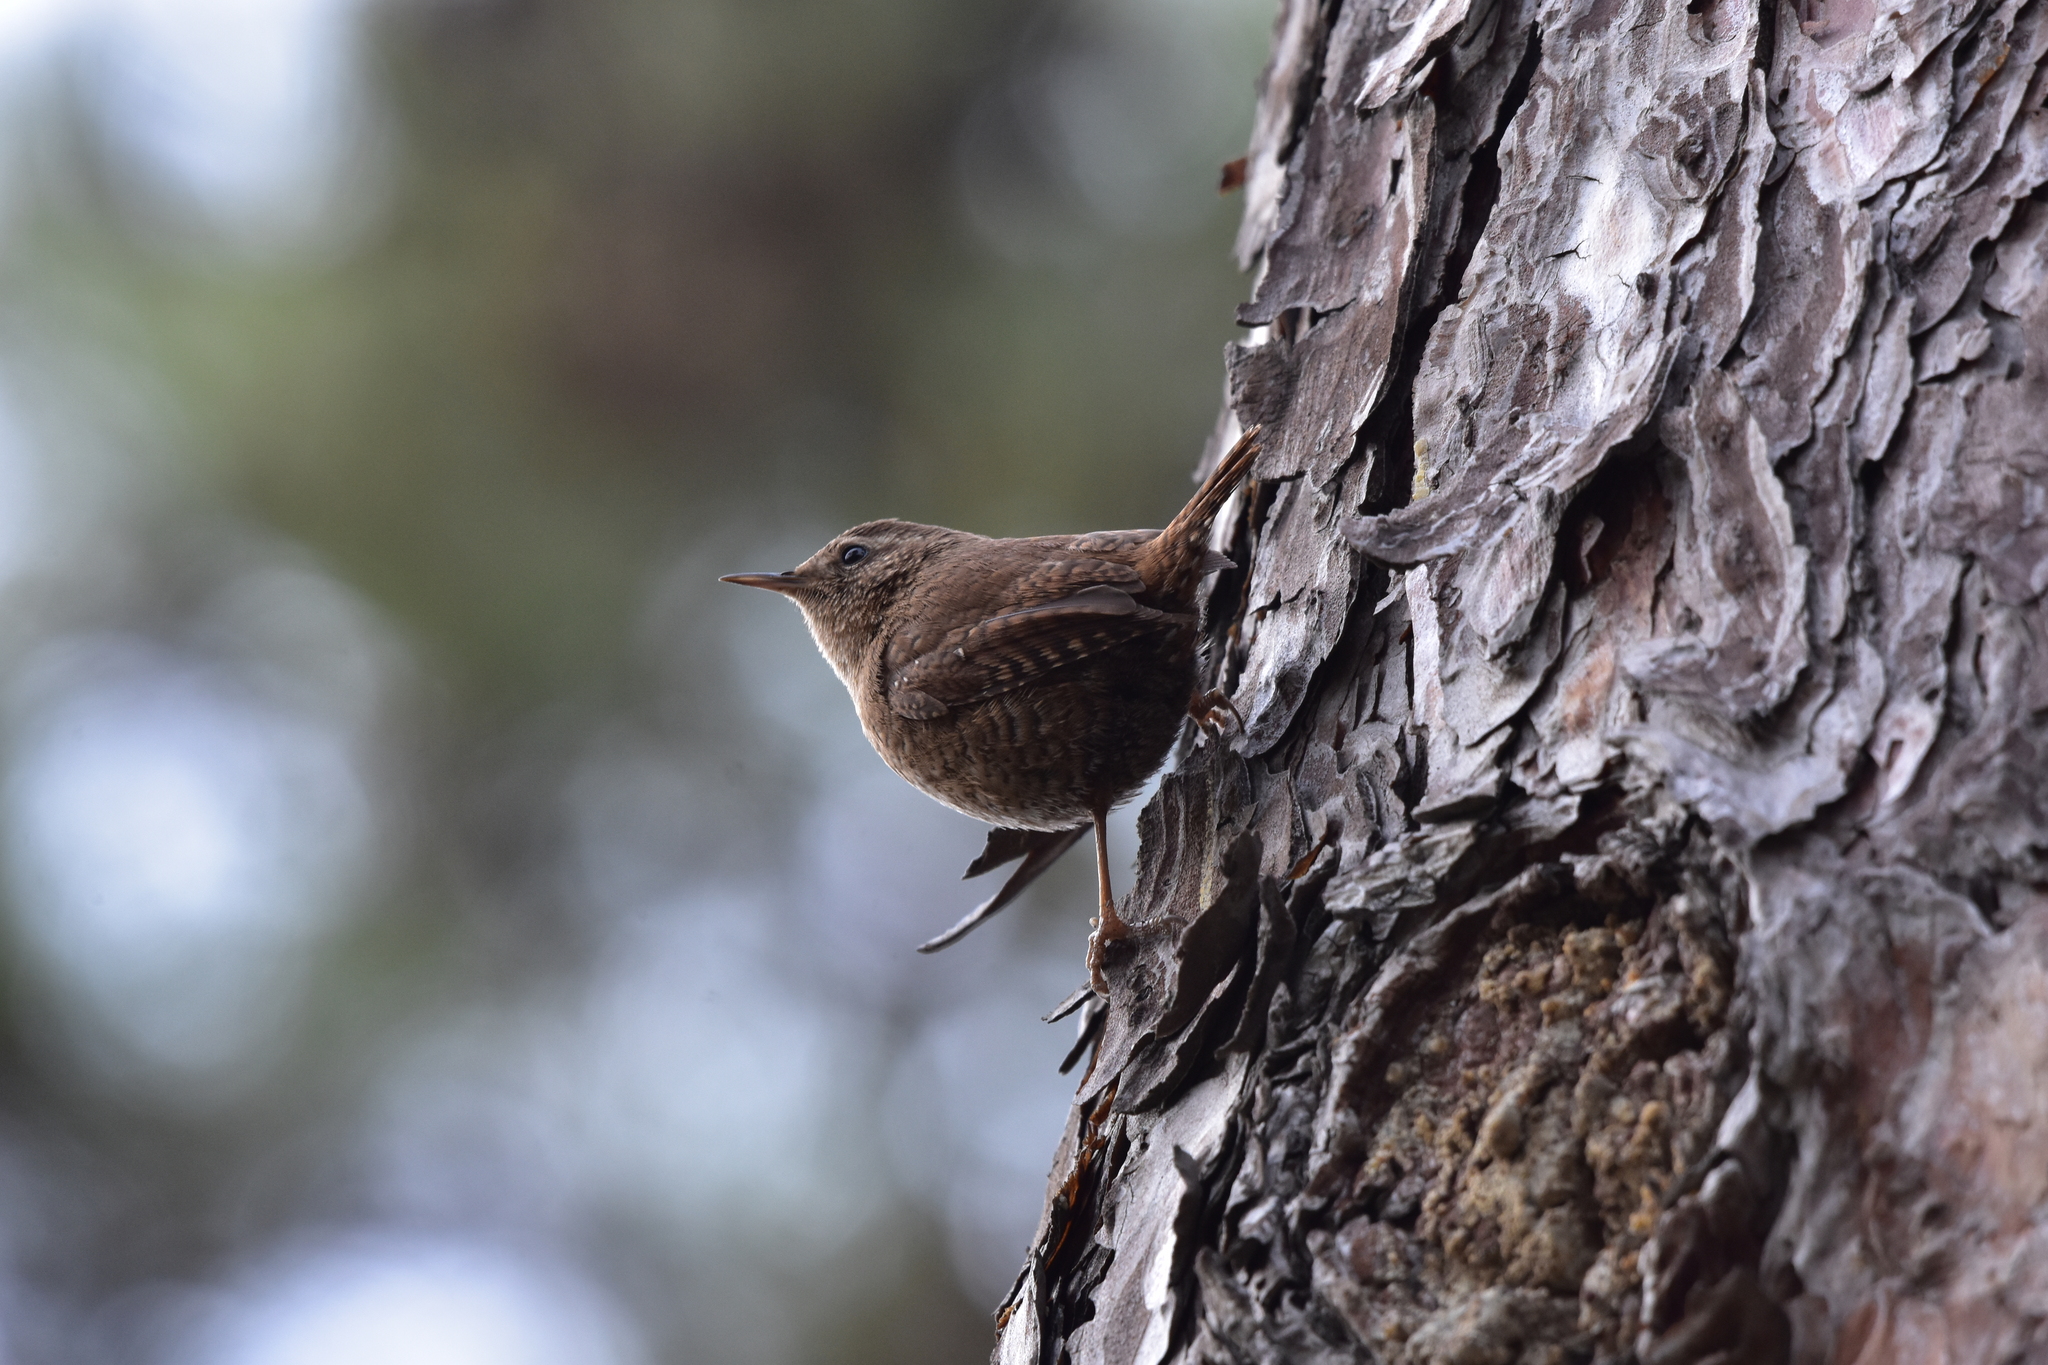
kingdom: Animalia
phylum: Chordata
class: Aves
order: Passeriformes
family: Troglodytidae
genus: Troglodytes
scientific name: Troglodytes troglodytes
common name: Eurasian wren
